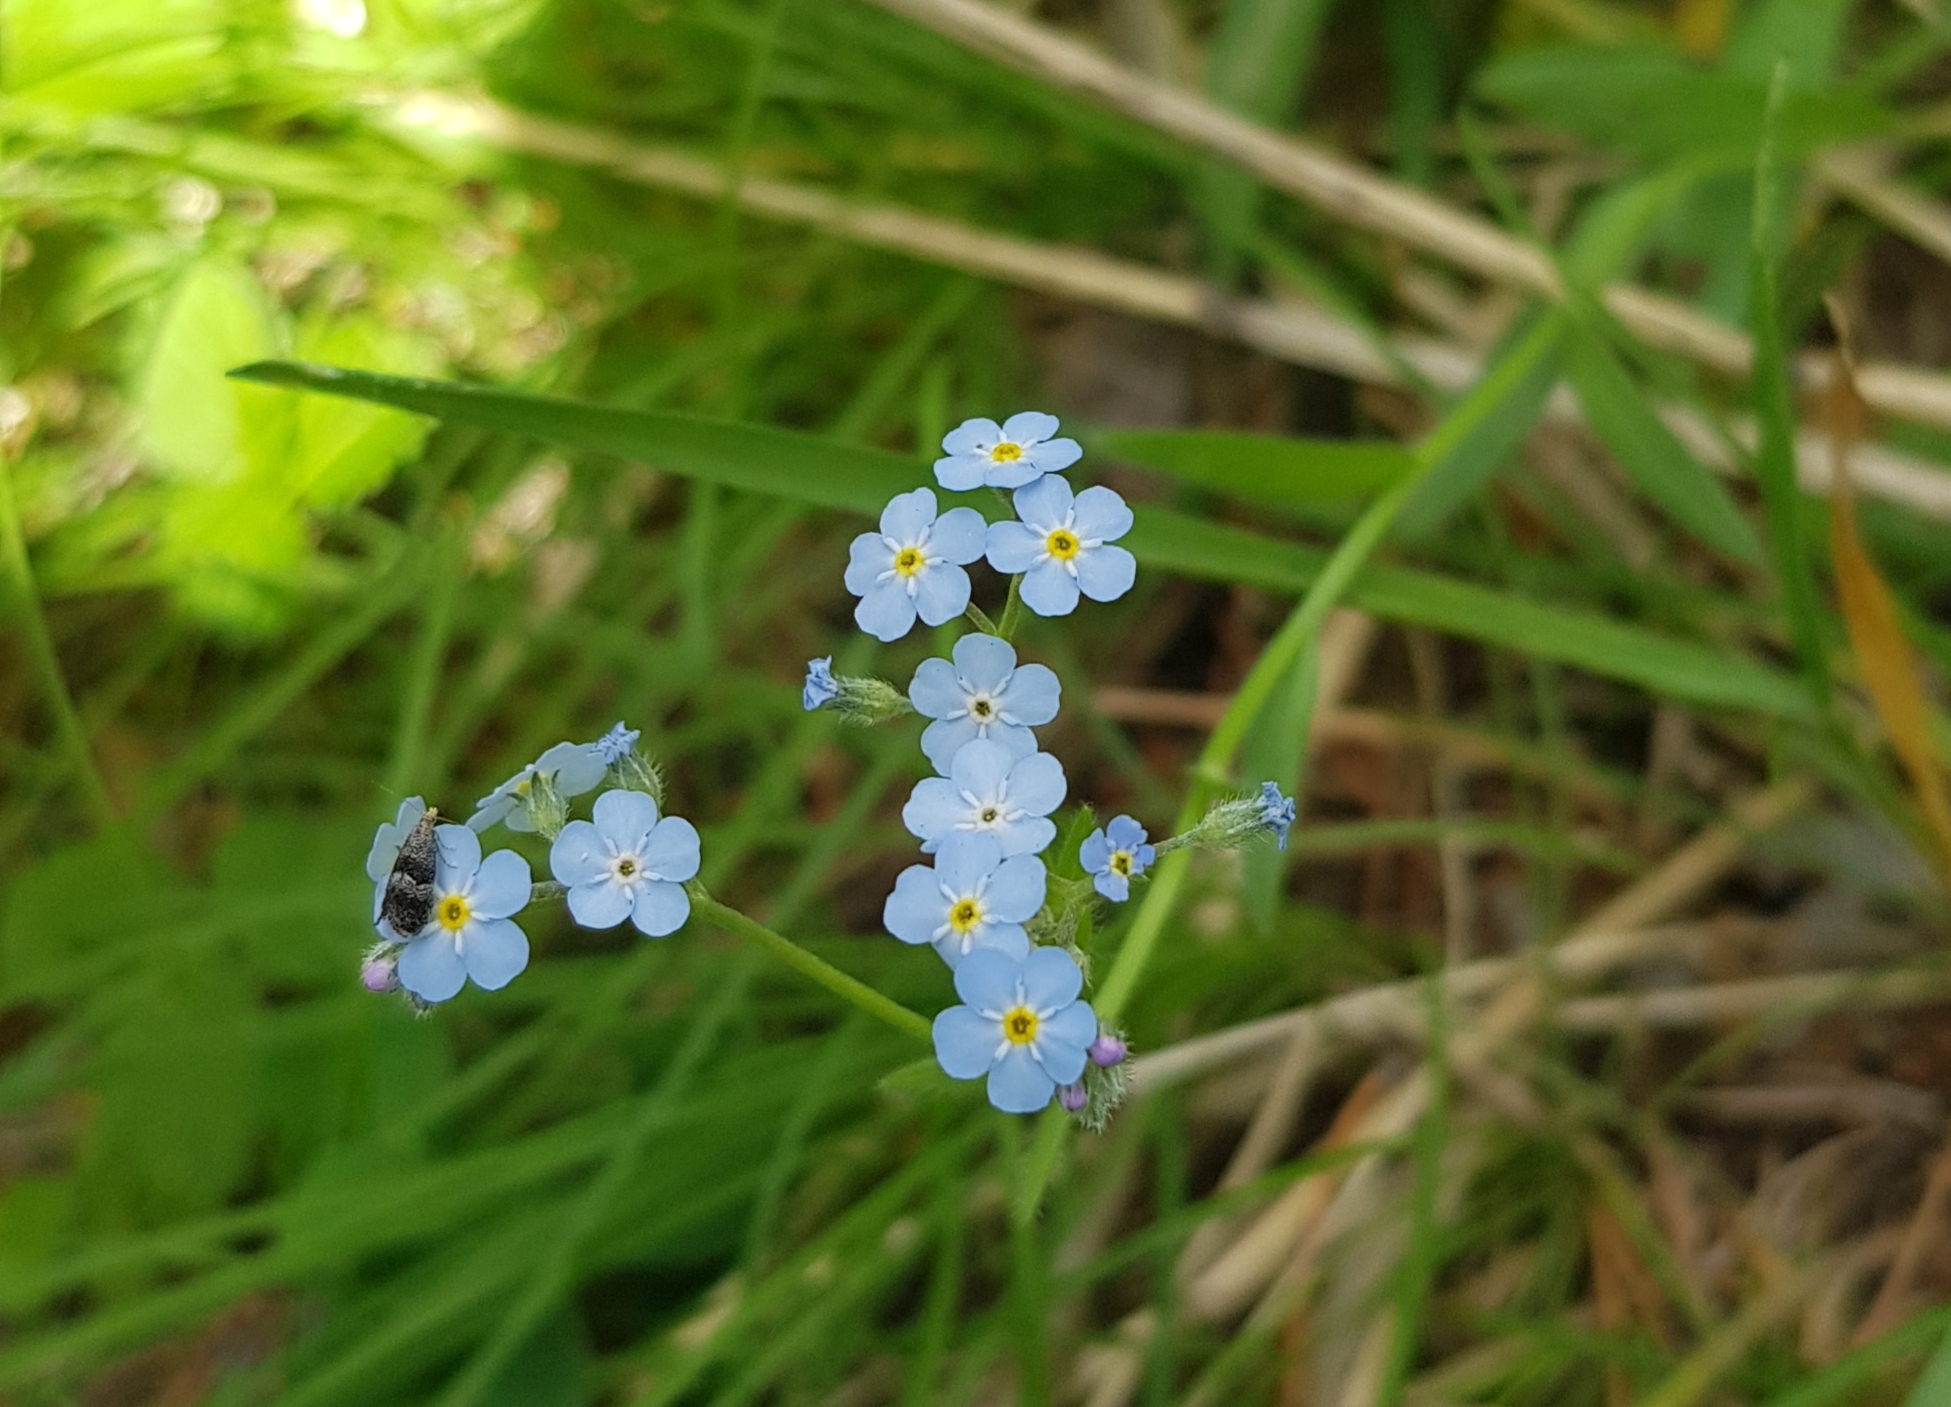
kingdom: Plantae
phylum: Tracheophyta
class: Magnoliopsida
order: Boraginales
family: Boraginaceae
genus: Myosotis
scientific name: Myosotis asiatica
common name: Asian forget-me-not
